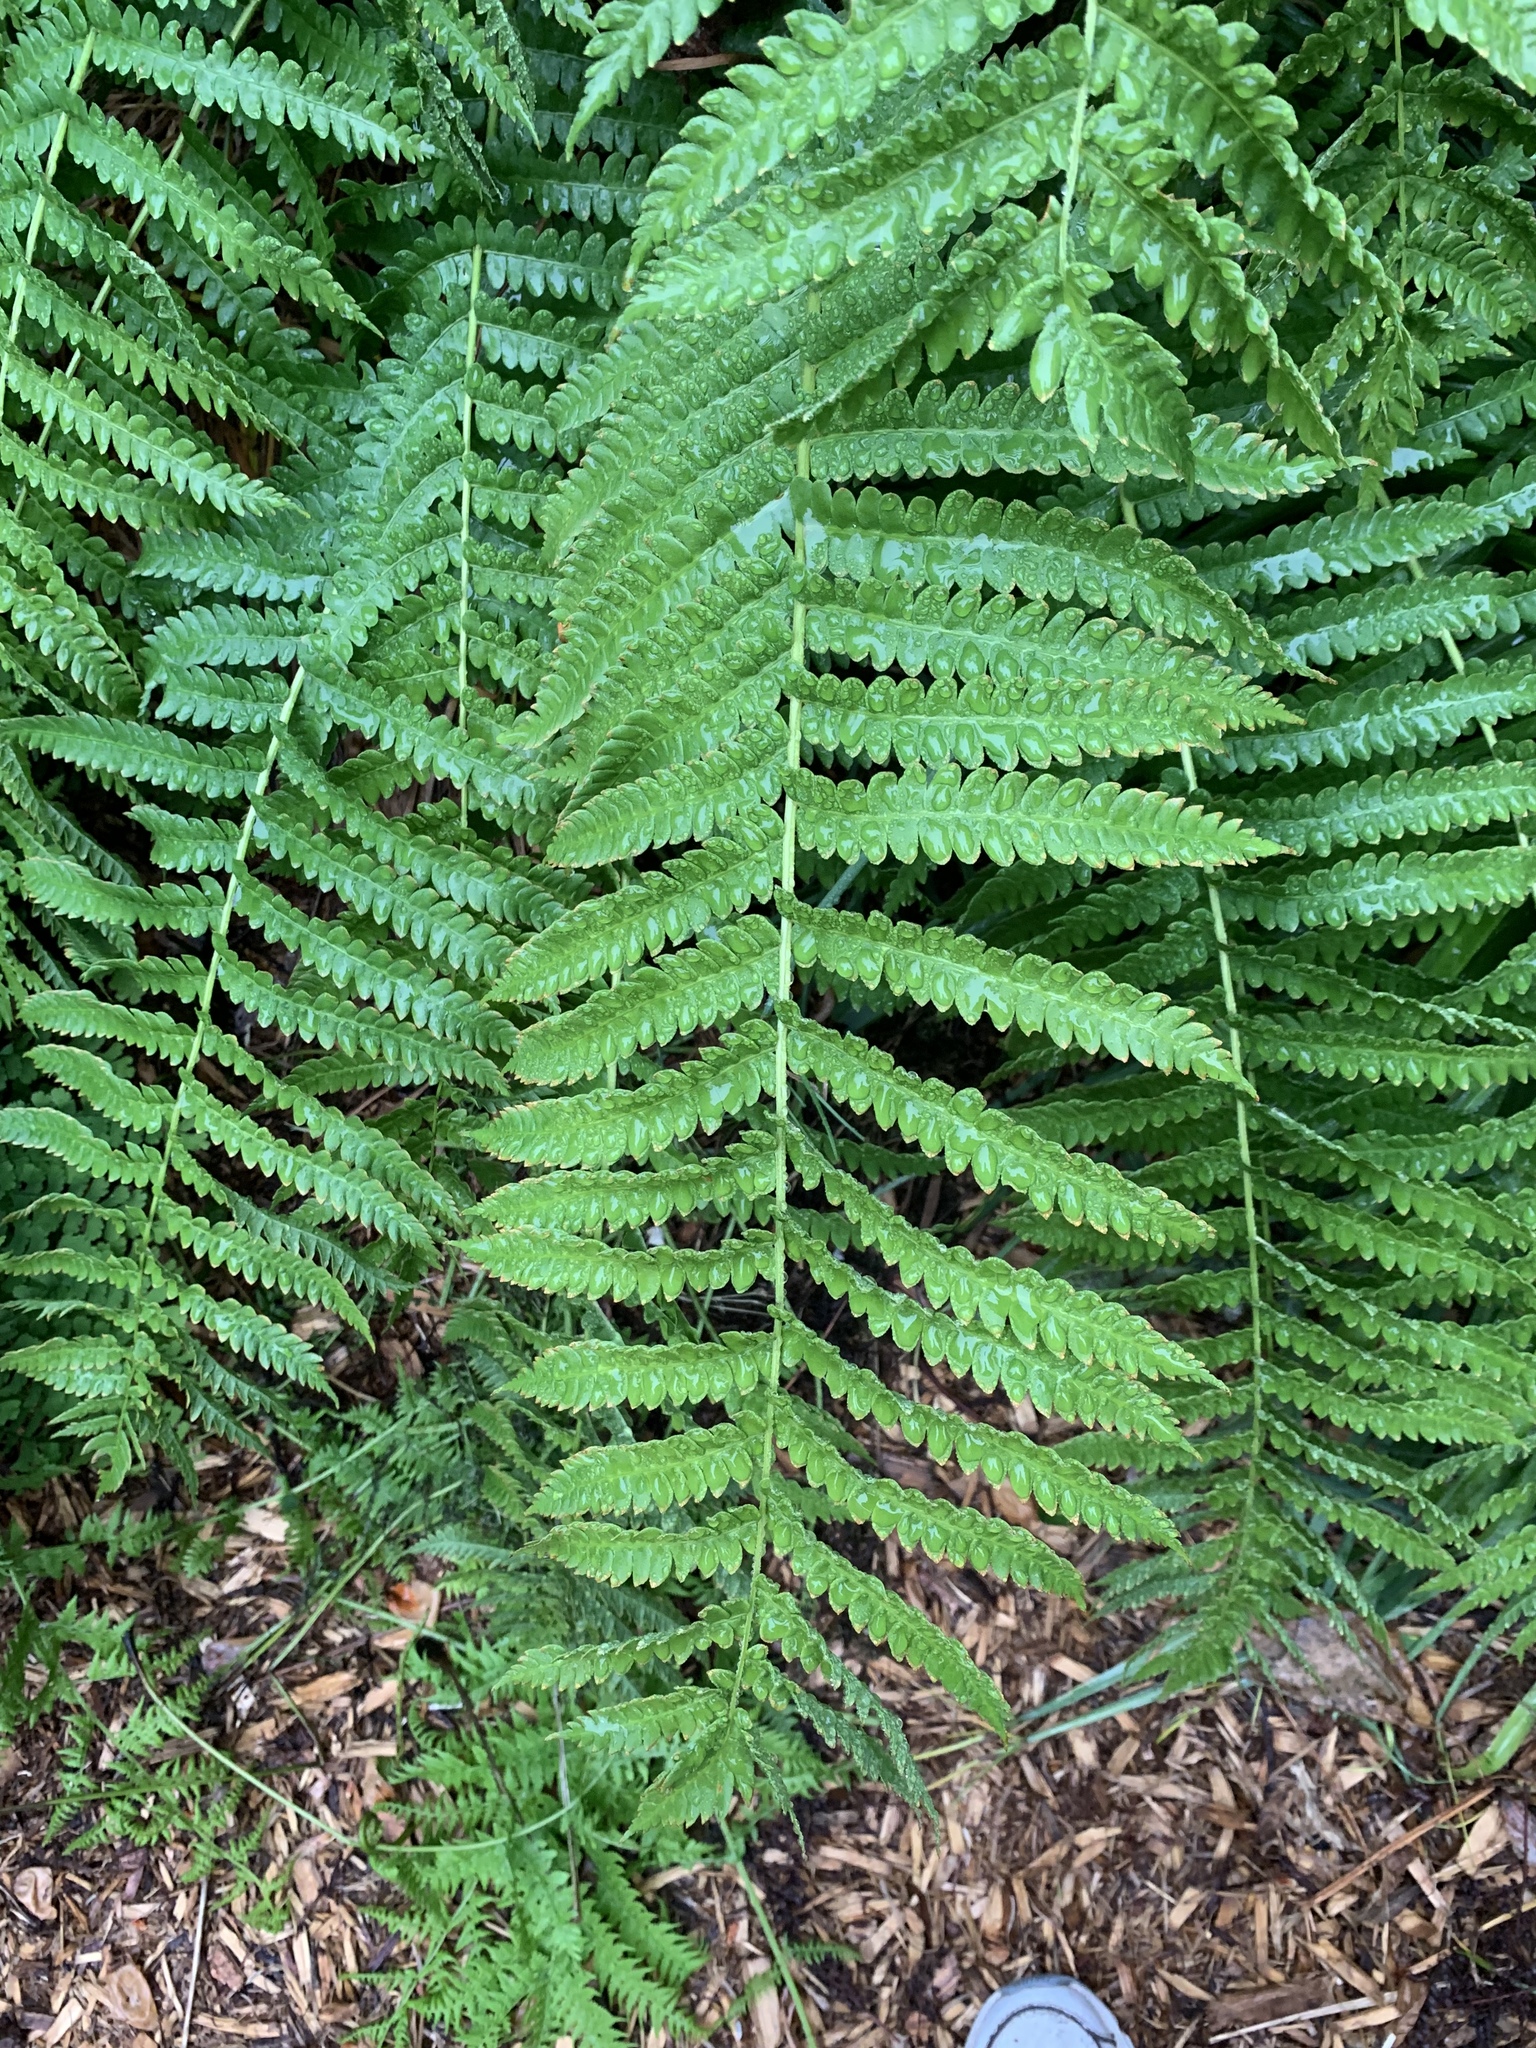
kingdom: Plantae
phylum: Tracheophyta
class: Polypodiopsida
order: Osmundales
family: Osmundaceae
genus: Osmundastrum
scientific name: Osmundastrum cinnamomeum
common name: Cinnamon fern
